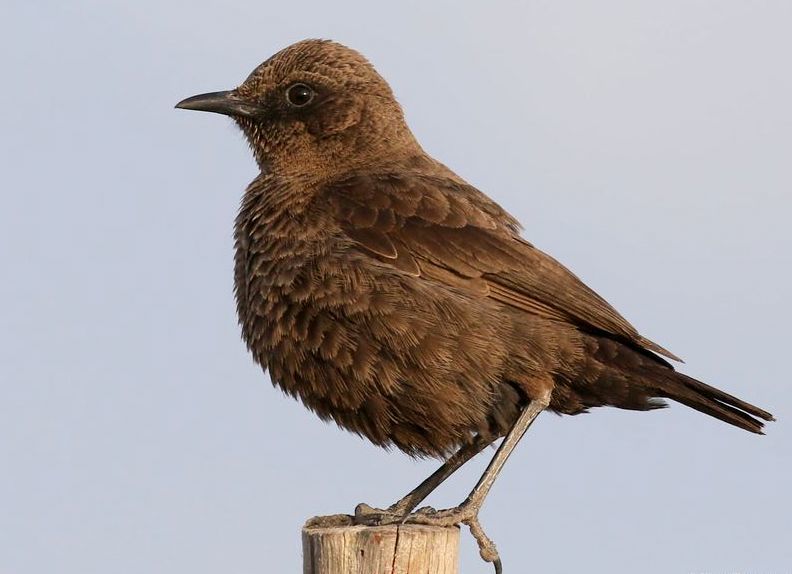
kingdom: Animalia
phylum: Chordata
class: Aves
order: Passeriformes
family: Muscicapidae
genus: Myrmecocichla
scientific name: Myrmecocichla formicivora
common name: Ant-eating chat
